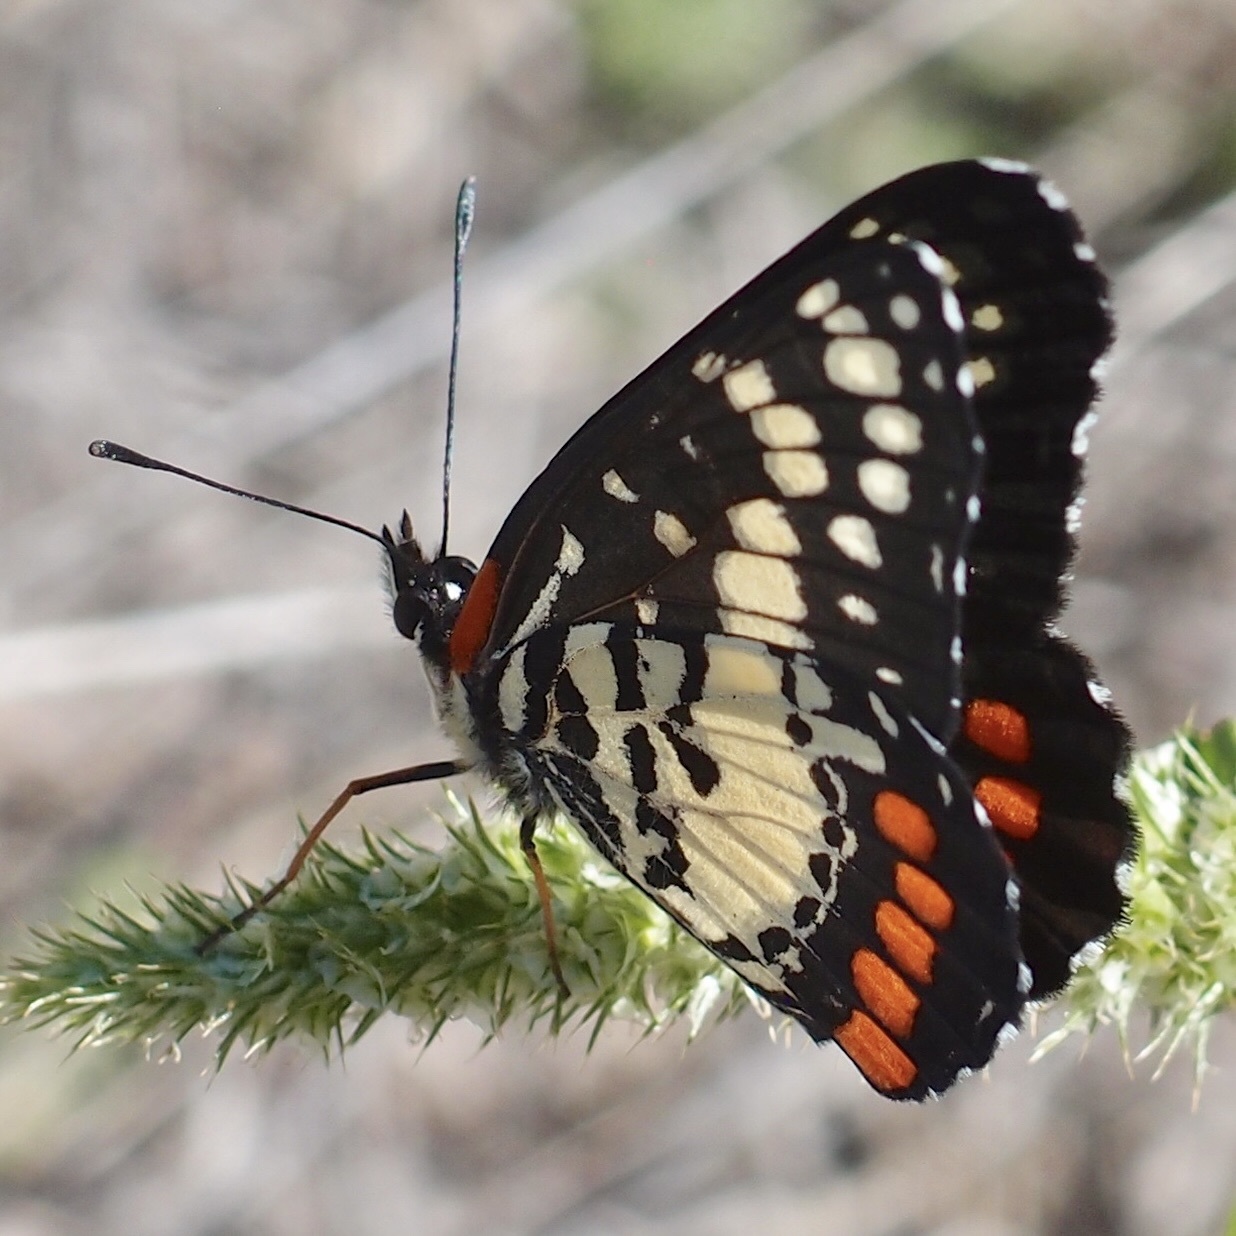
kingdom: Animalia
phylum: Arthropoda
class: Insecta
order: Lepidoptera
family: Nymphalidae
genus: Chlosyne
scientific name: Chlosyne eumeda
